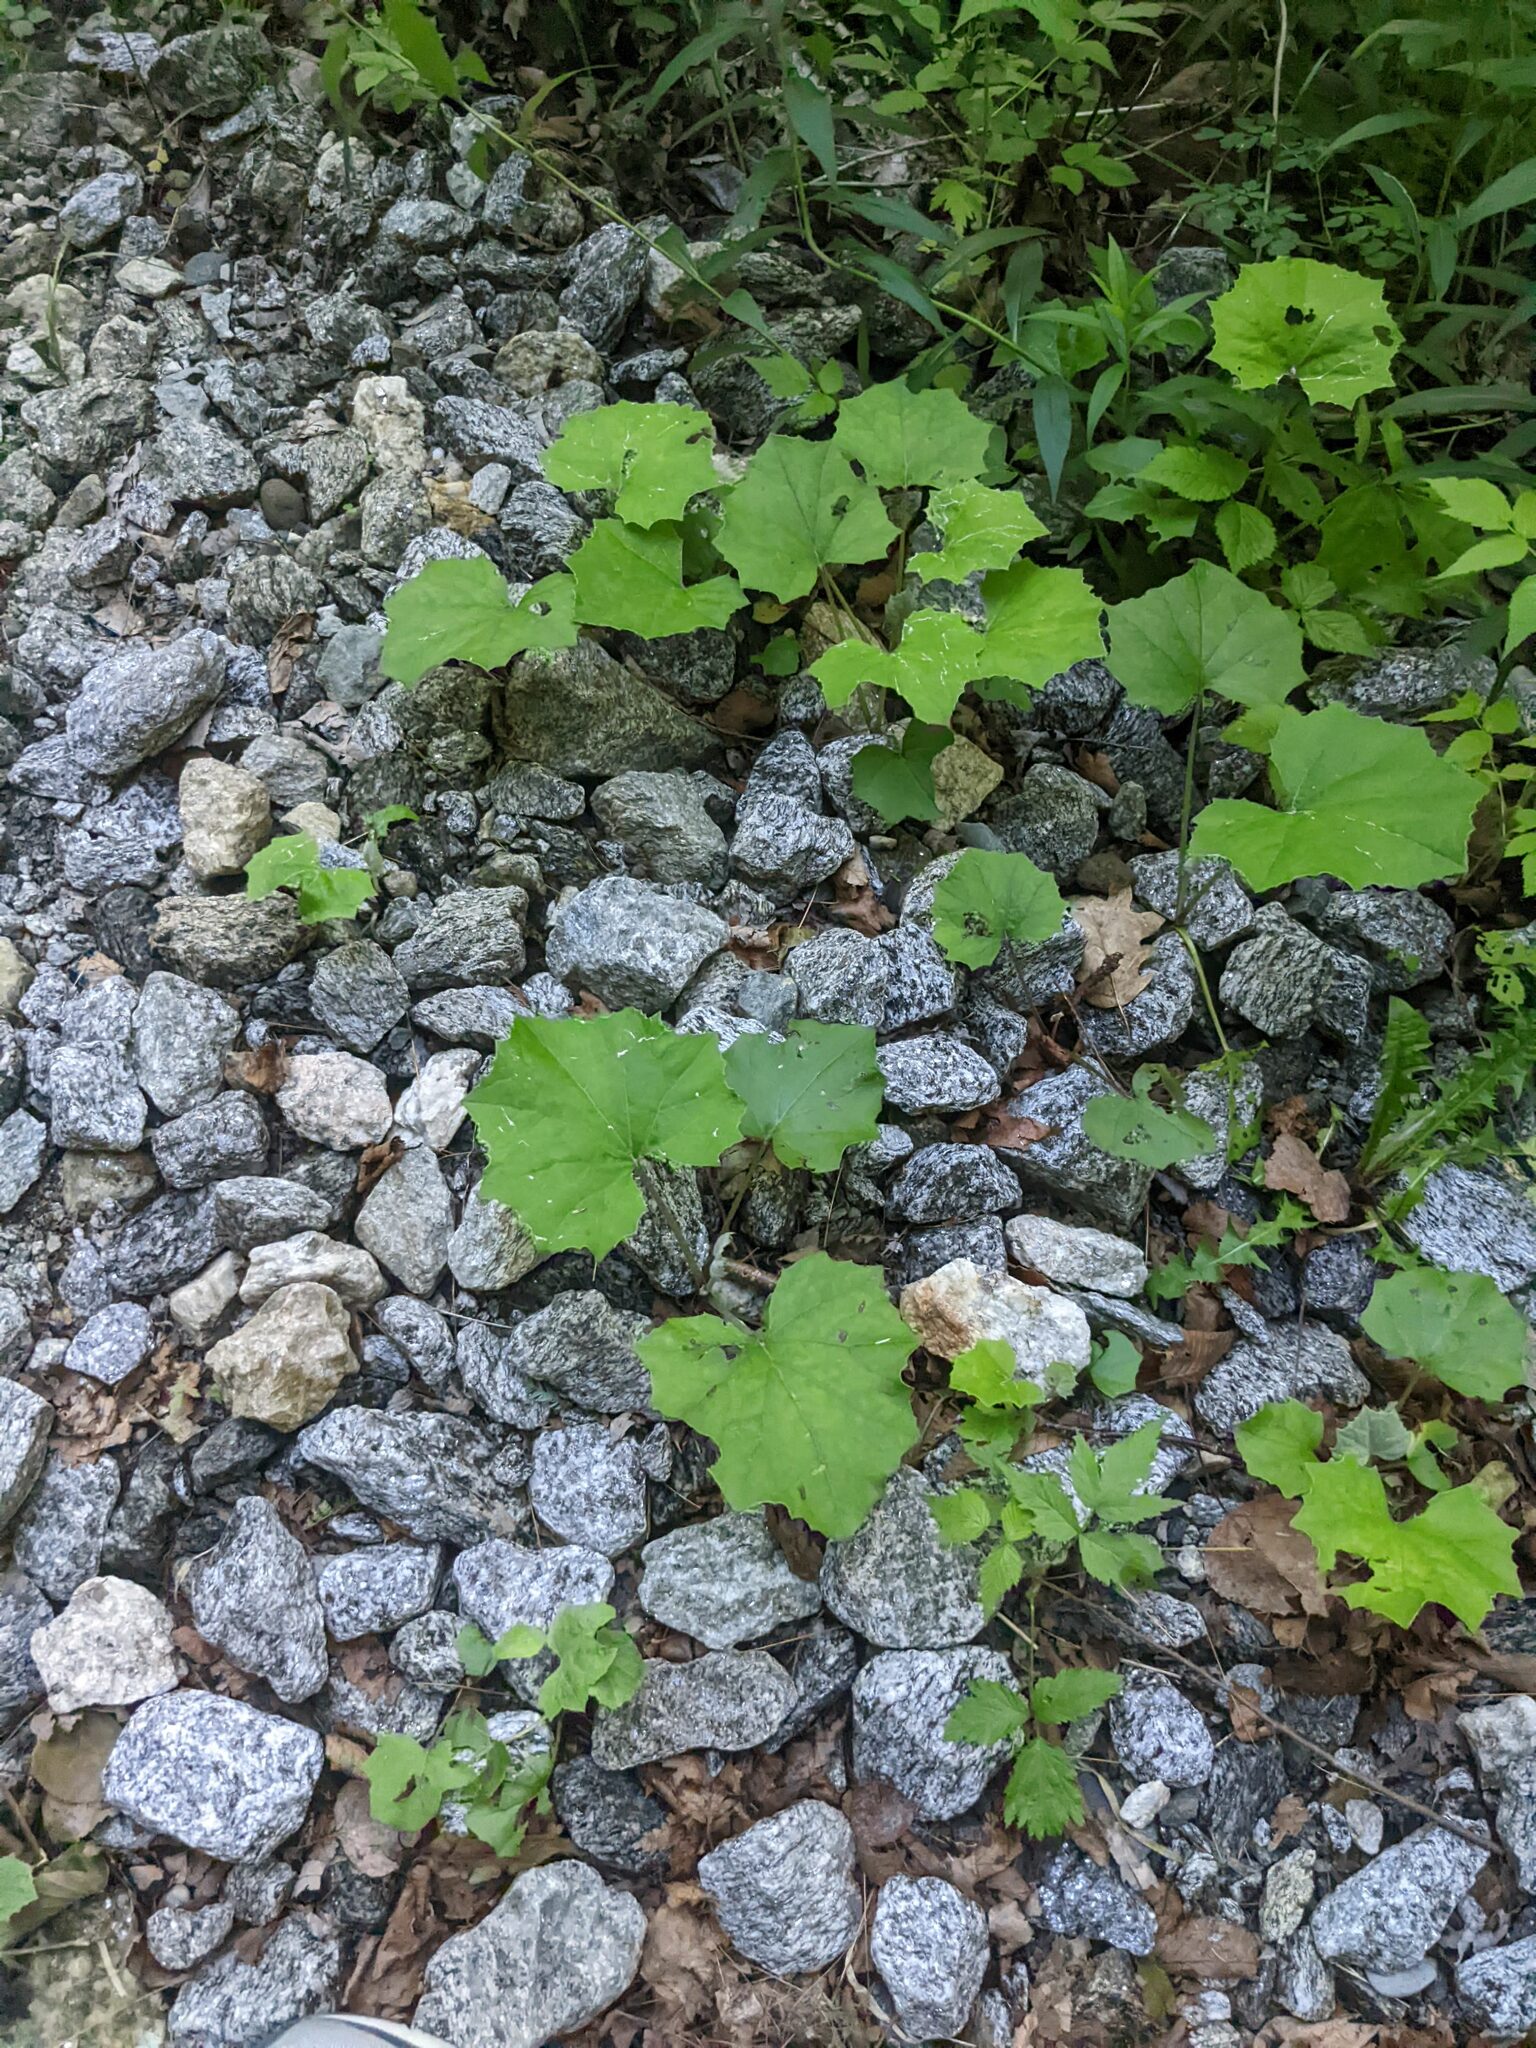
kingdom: Plantae
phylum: Tracheophyta
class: Magnoliopsida
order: Asterales
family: Asteraceae
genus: Tussilago
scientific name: Tussilago farfara
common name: Coltsfoot
